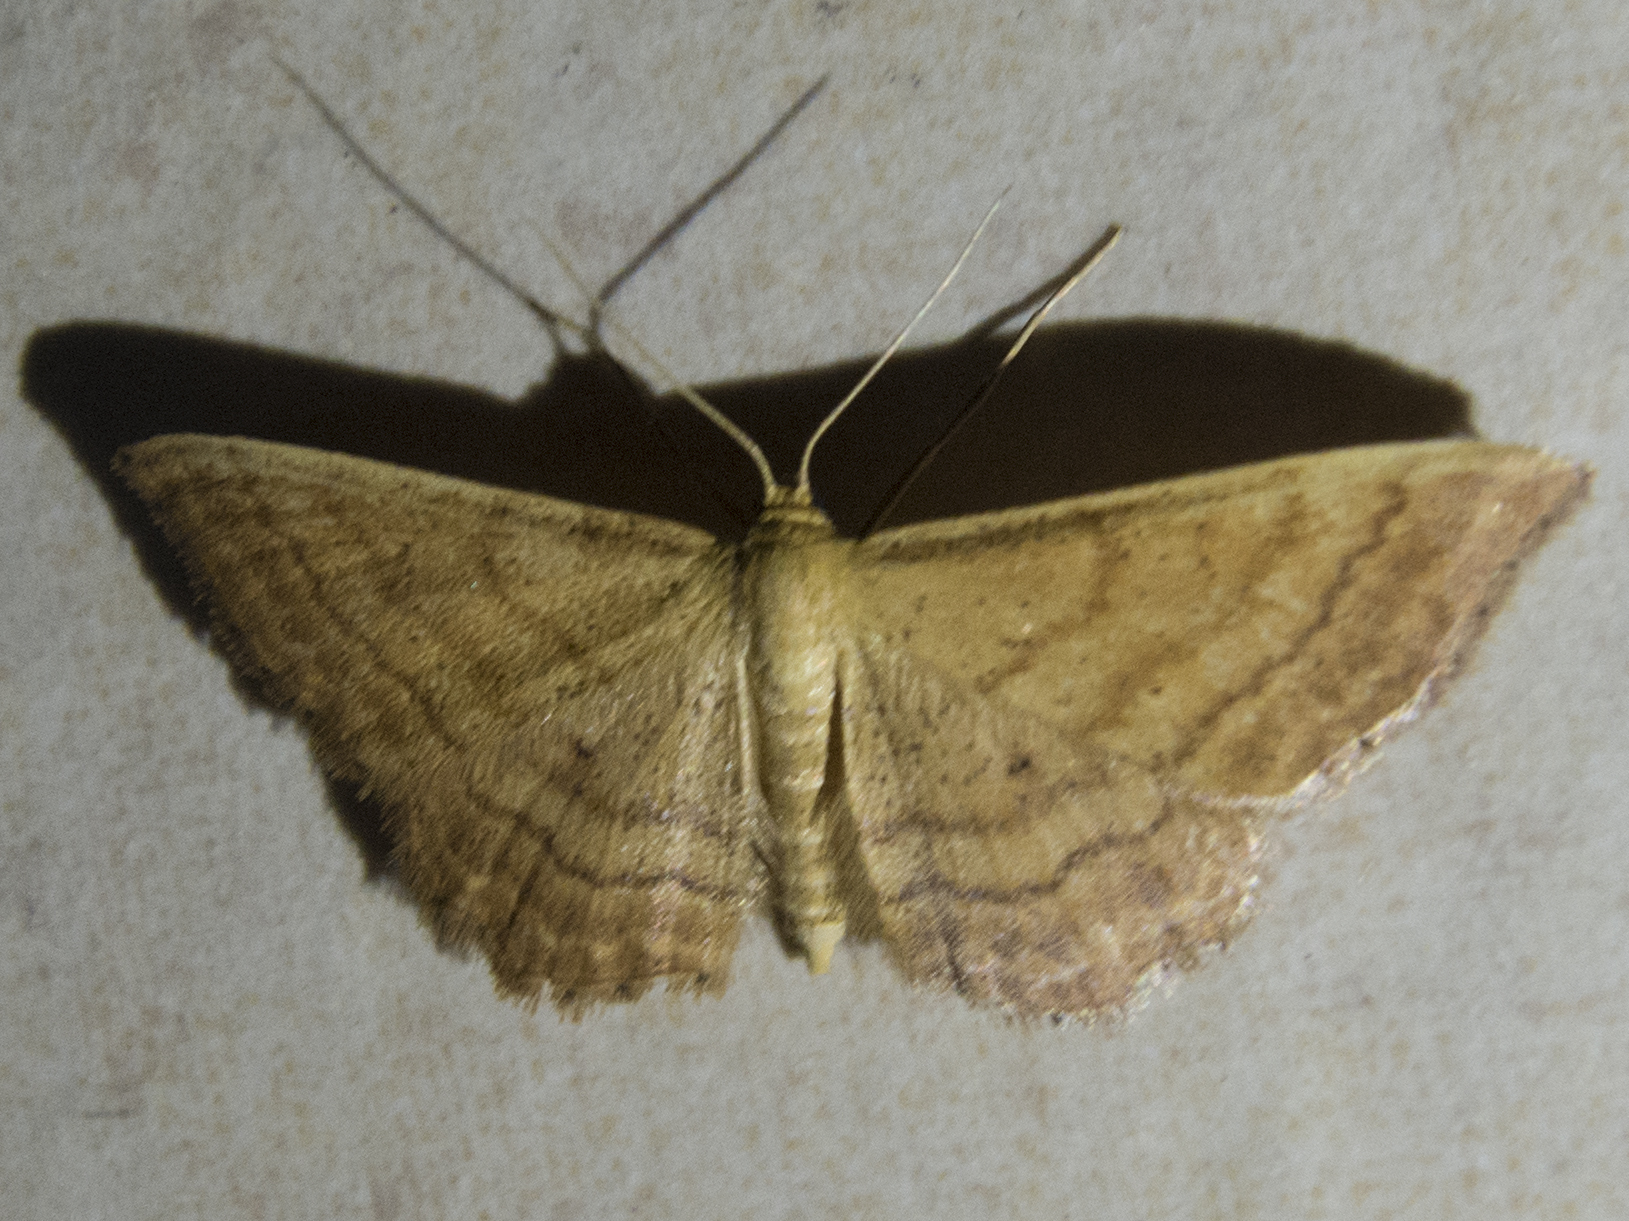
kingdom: Animalia
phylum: Arthropoda
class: Insecta
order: Lepidoptera
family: Geometridae
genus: Idaea
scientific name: Idaea ochrata
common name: Bright wave
